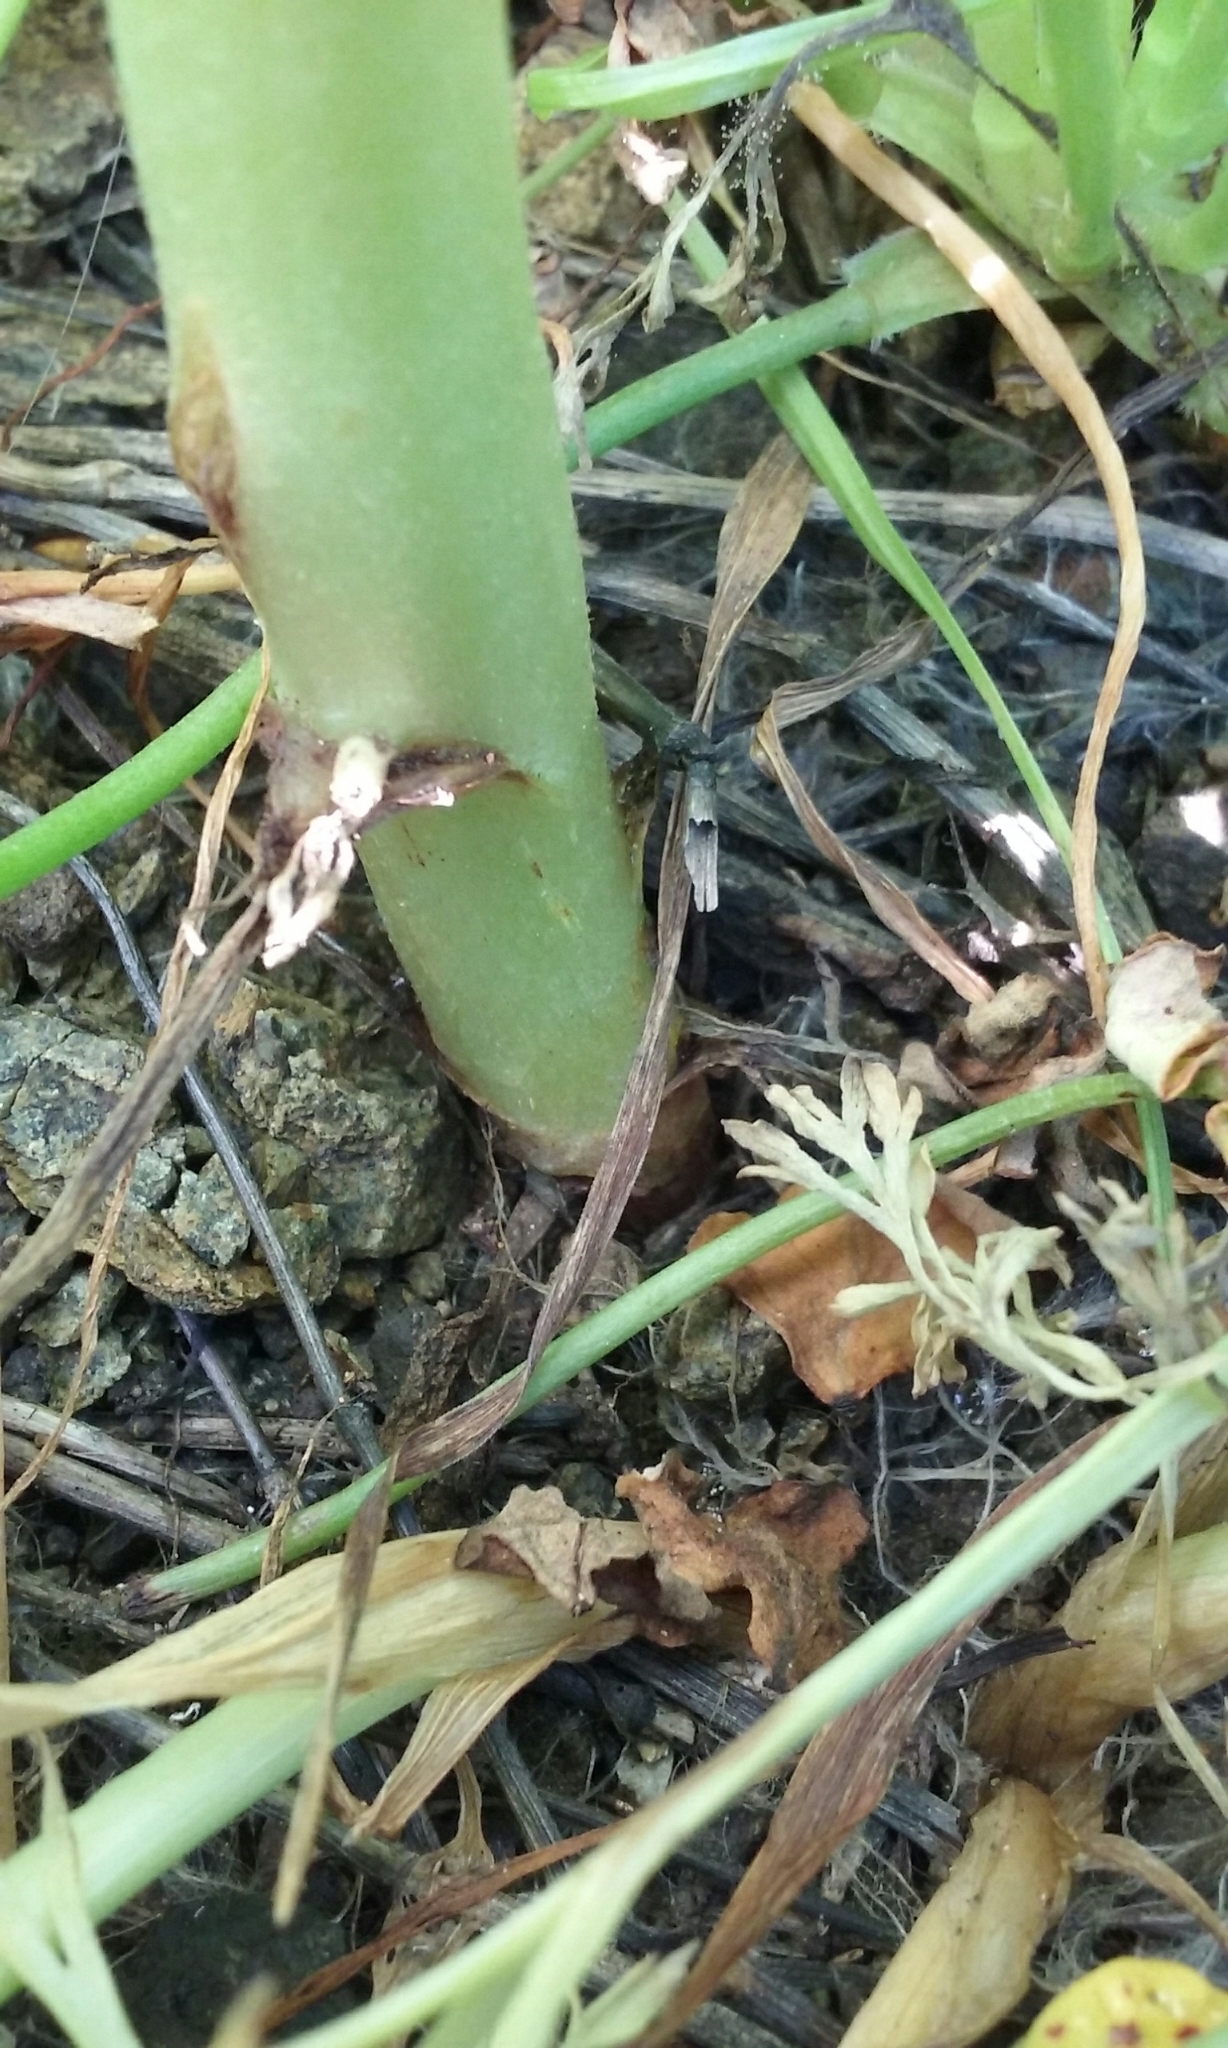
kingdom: Plantae
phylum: Tracheophyta
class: Magnoliopsida
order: Fabales
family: Fabaceae
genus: Lupinus
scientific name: Lupinus succulentus
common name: Arroyo lupine
